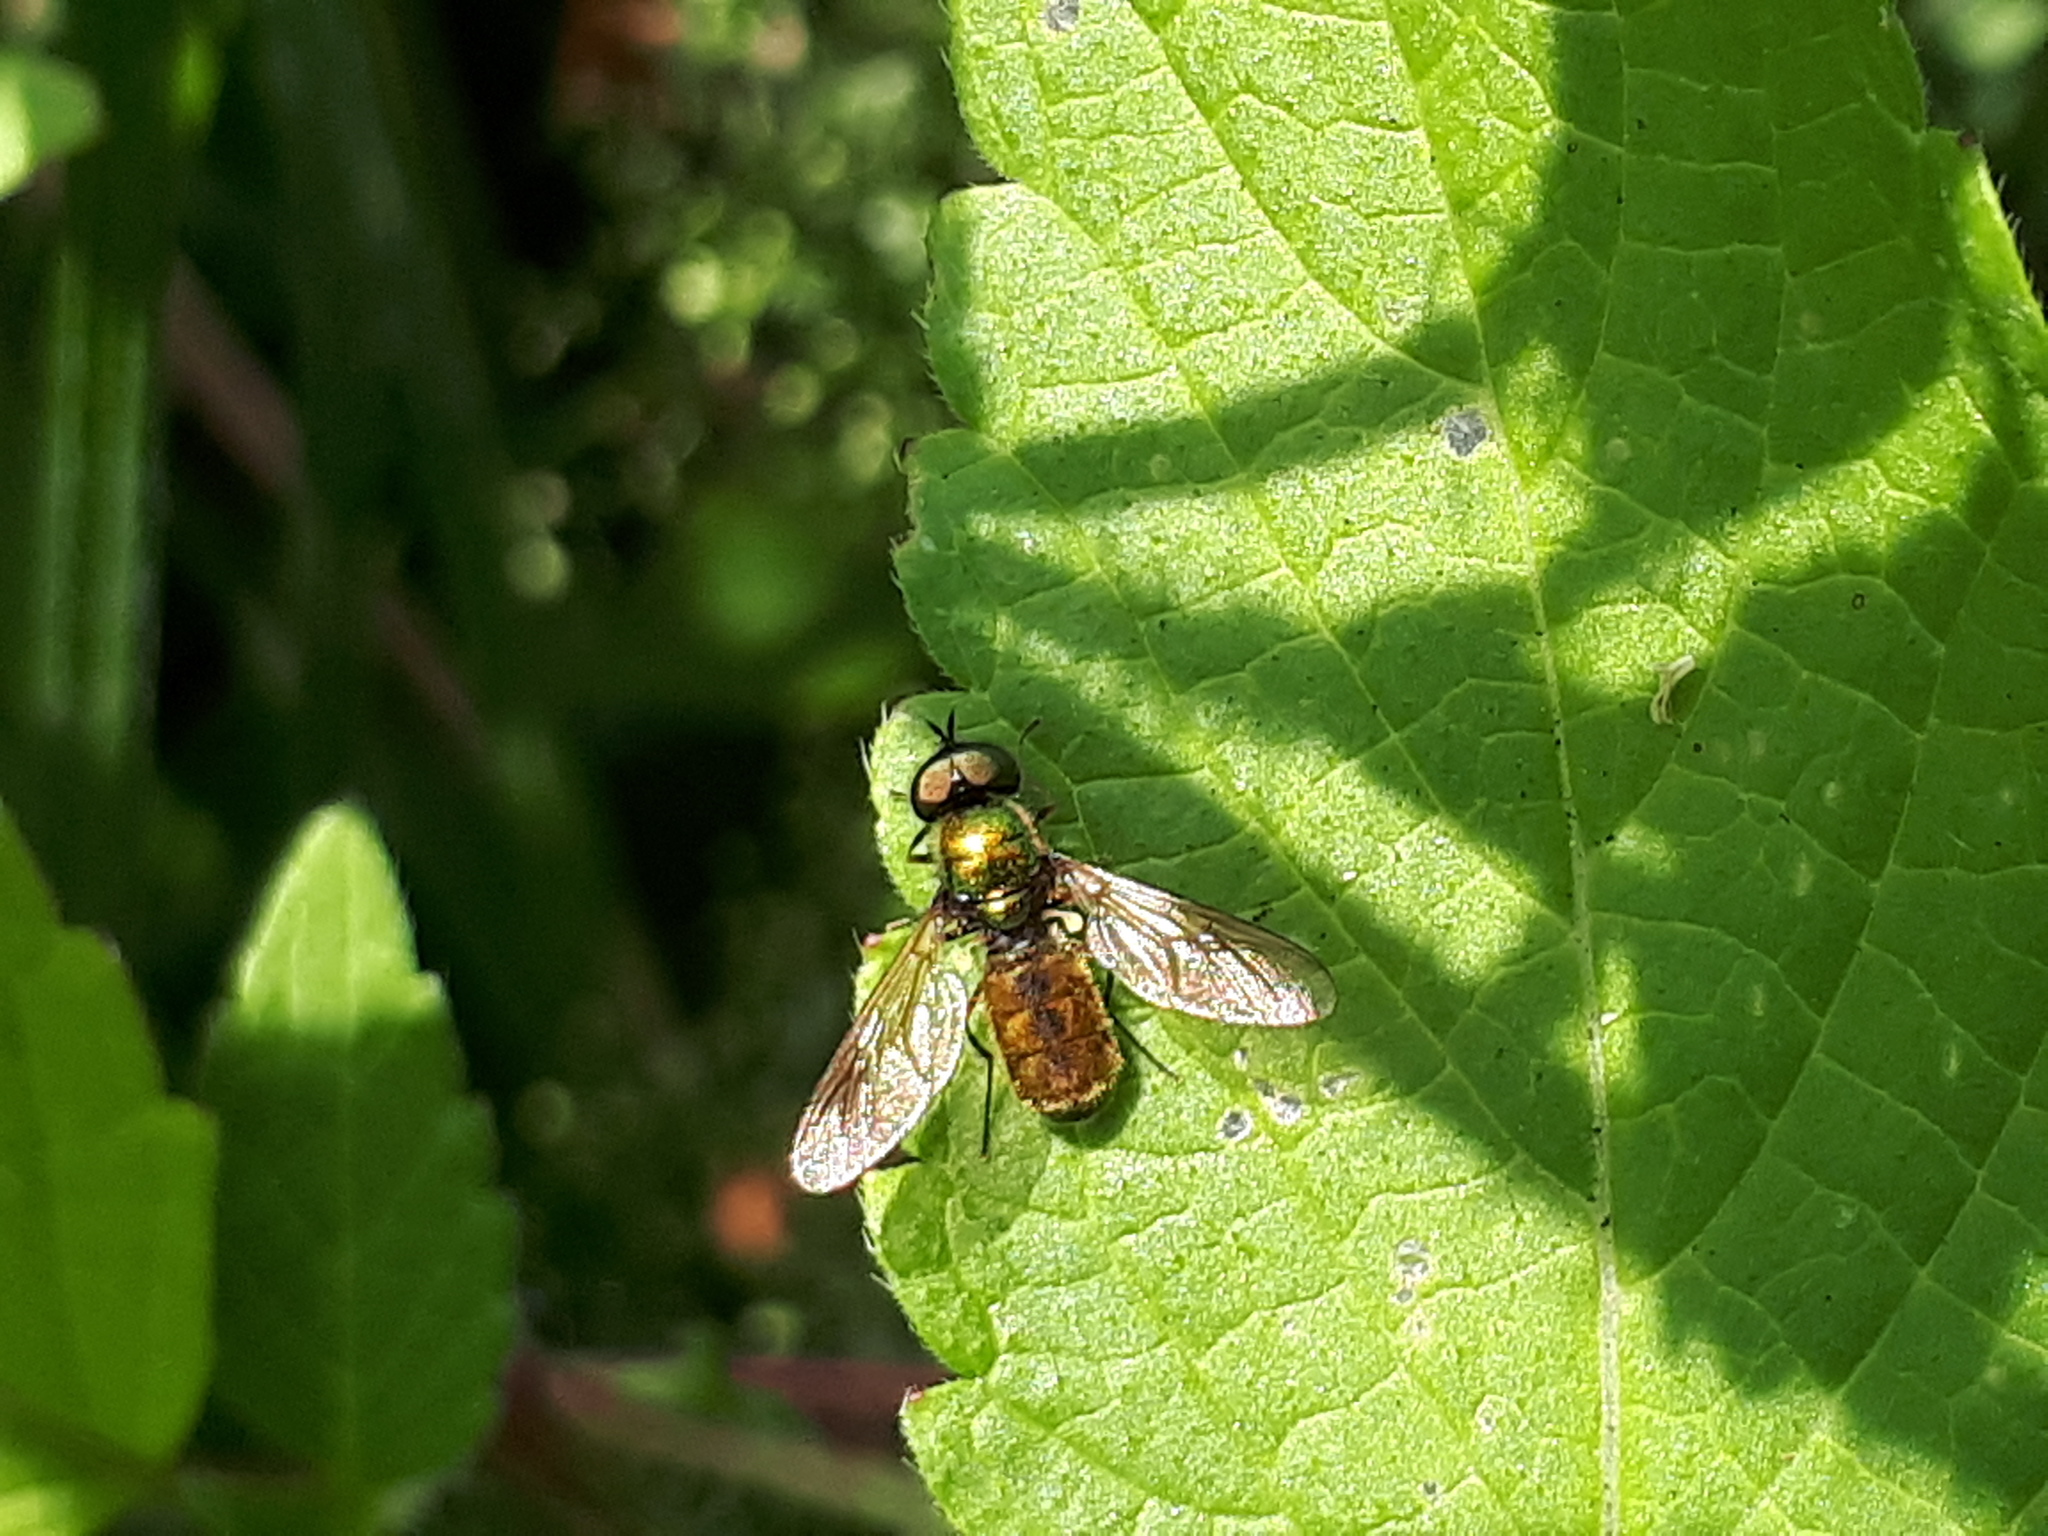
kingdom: Animalia
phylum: Arthropoda
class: Insecta
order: Diptera
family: Stratiomyidae
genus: Chloromyia
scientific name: Chloromyia formosa
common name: Soldier fly
